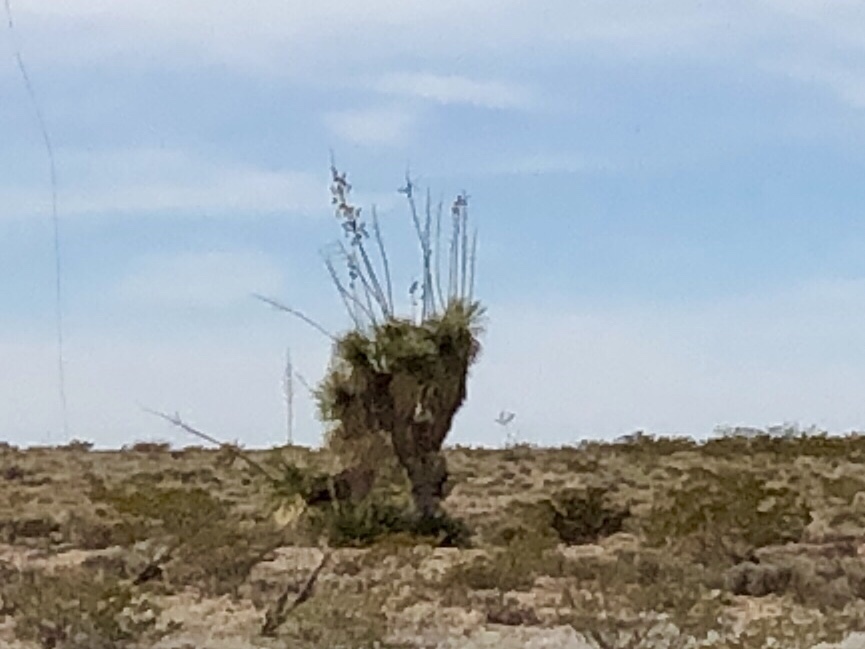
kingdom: Plantae
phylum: Tracheophyta
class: Liliopsida
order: Asparagales
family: Asparagaceae
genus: Yucca
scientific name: Yucca elata
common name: Palmella
